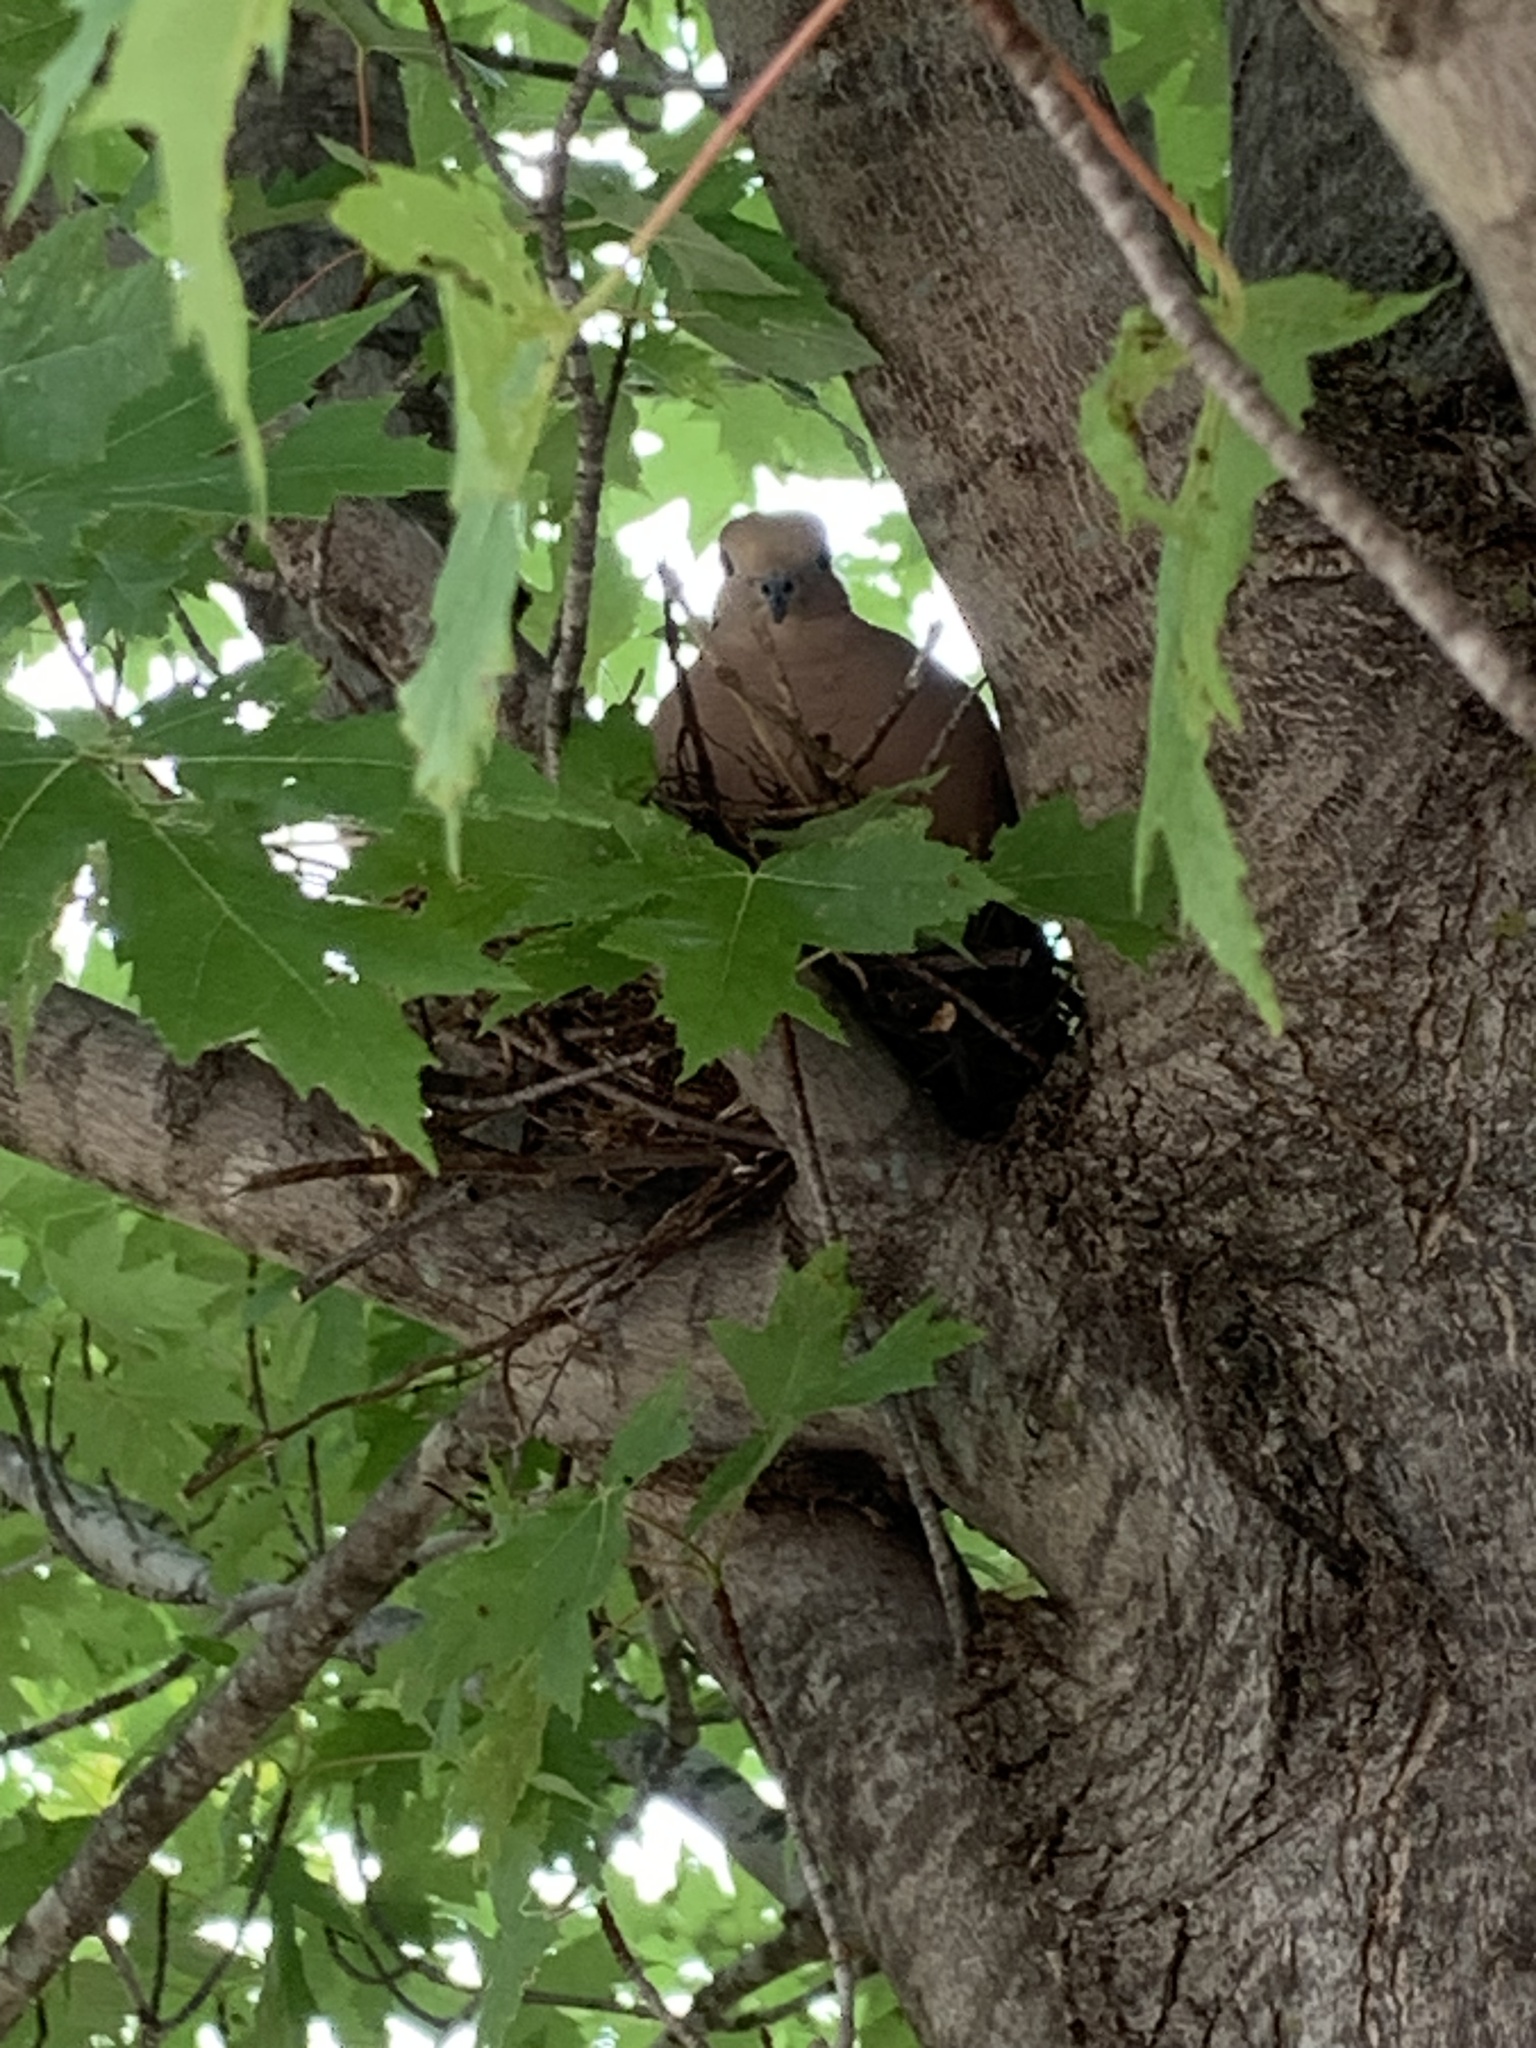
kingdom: Animalia
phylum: Chordata
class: Aves
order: Columbiformes
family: Columbidae
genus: Zenaida
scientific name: Zenaida macroura
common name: Mourning dove
